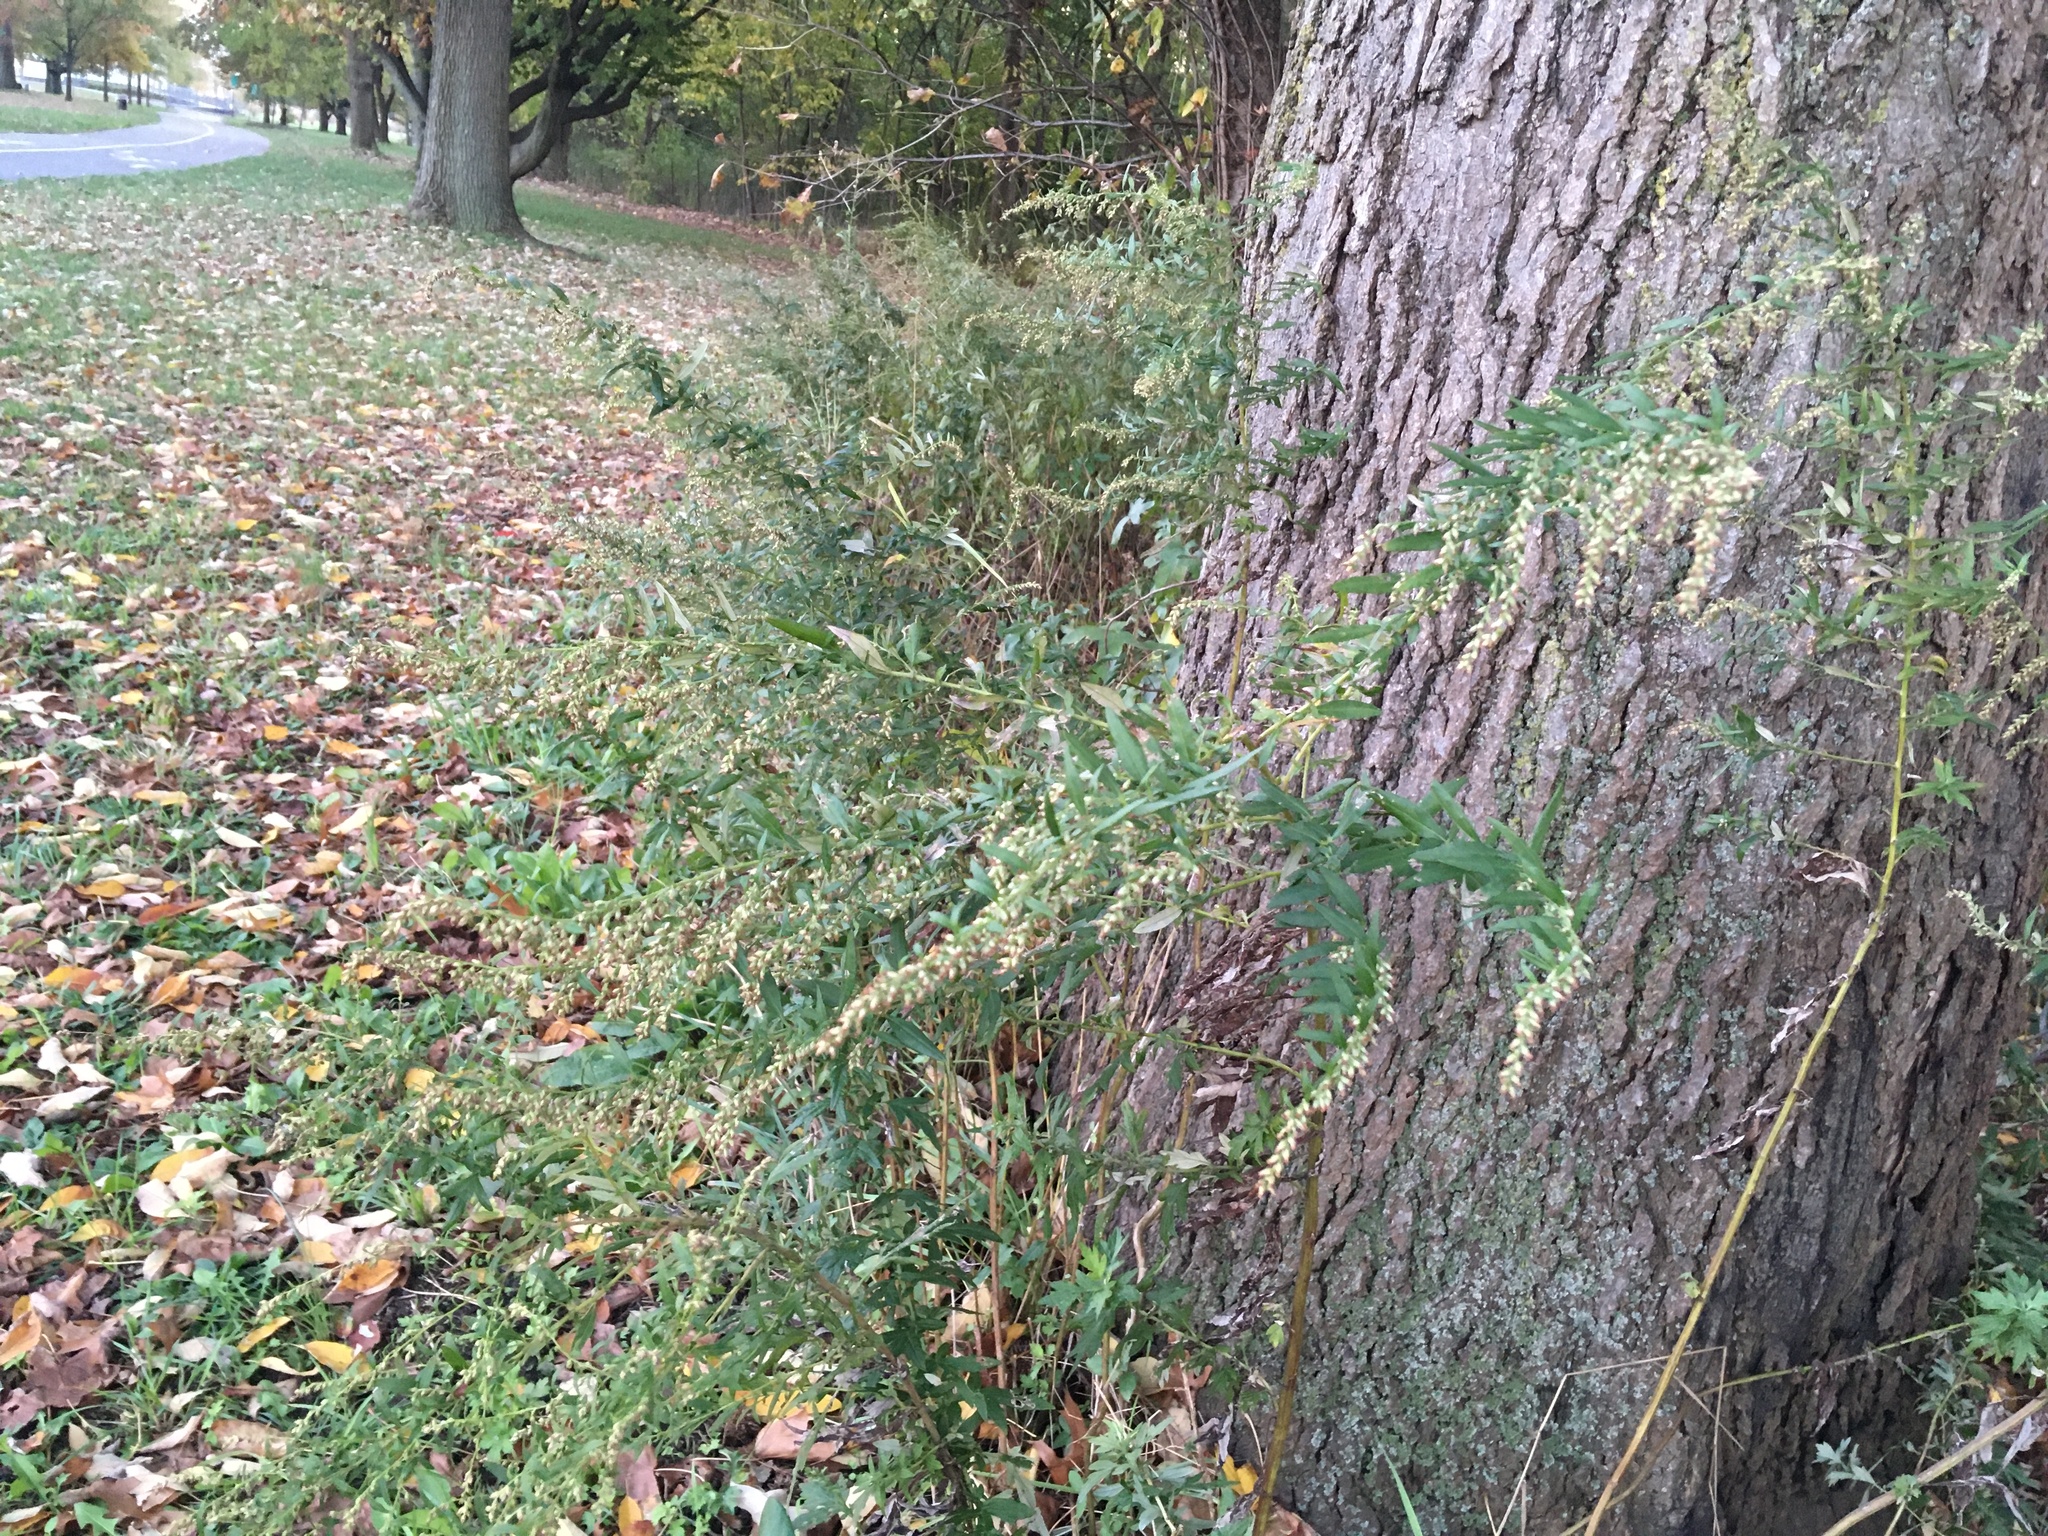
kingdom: Plantae
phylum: Tracheophyta
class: Magnoliopsida
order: Asterales
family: Asteraceae
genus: Artemisia
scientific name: Artemisia vulgaris
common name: Mugwort
